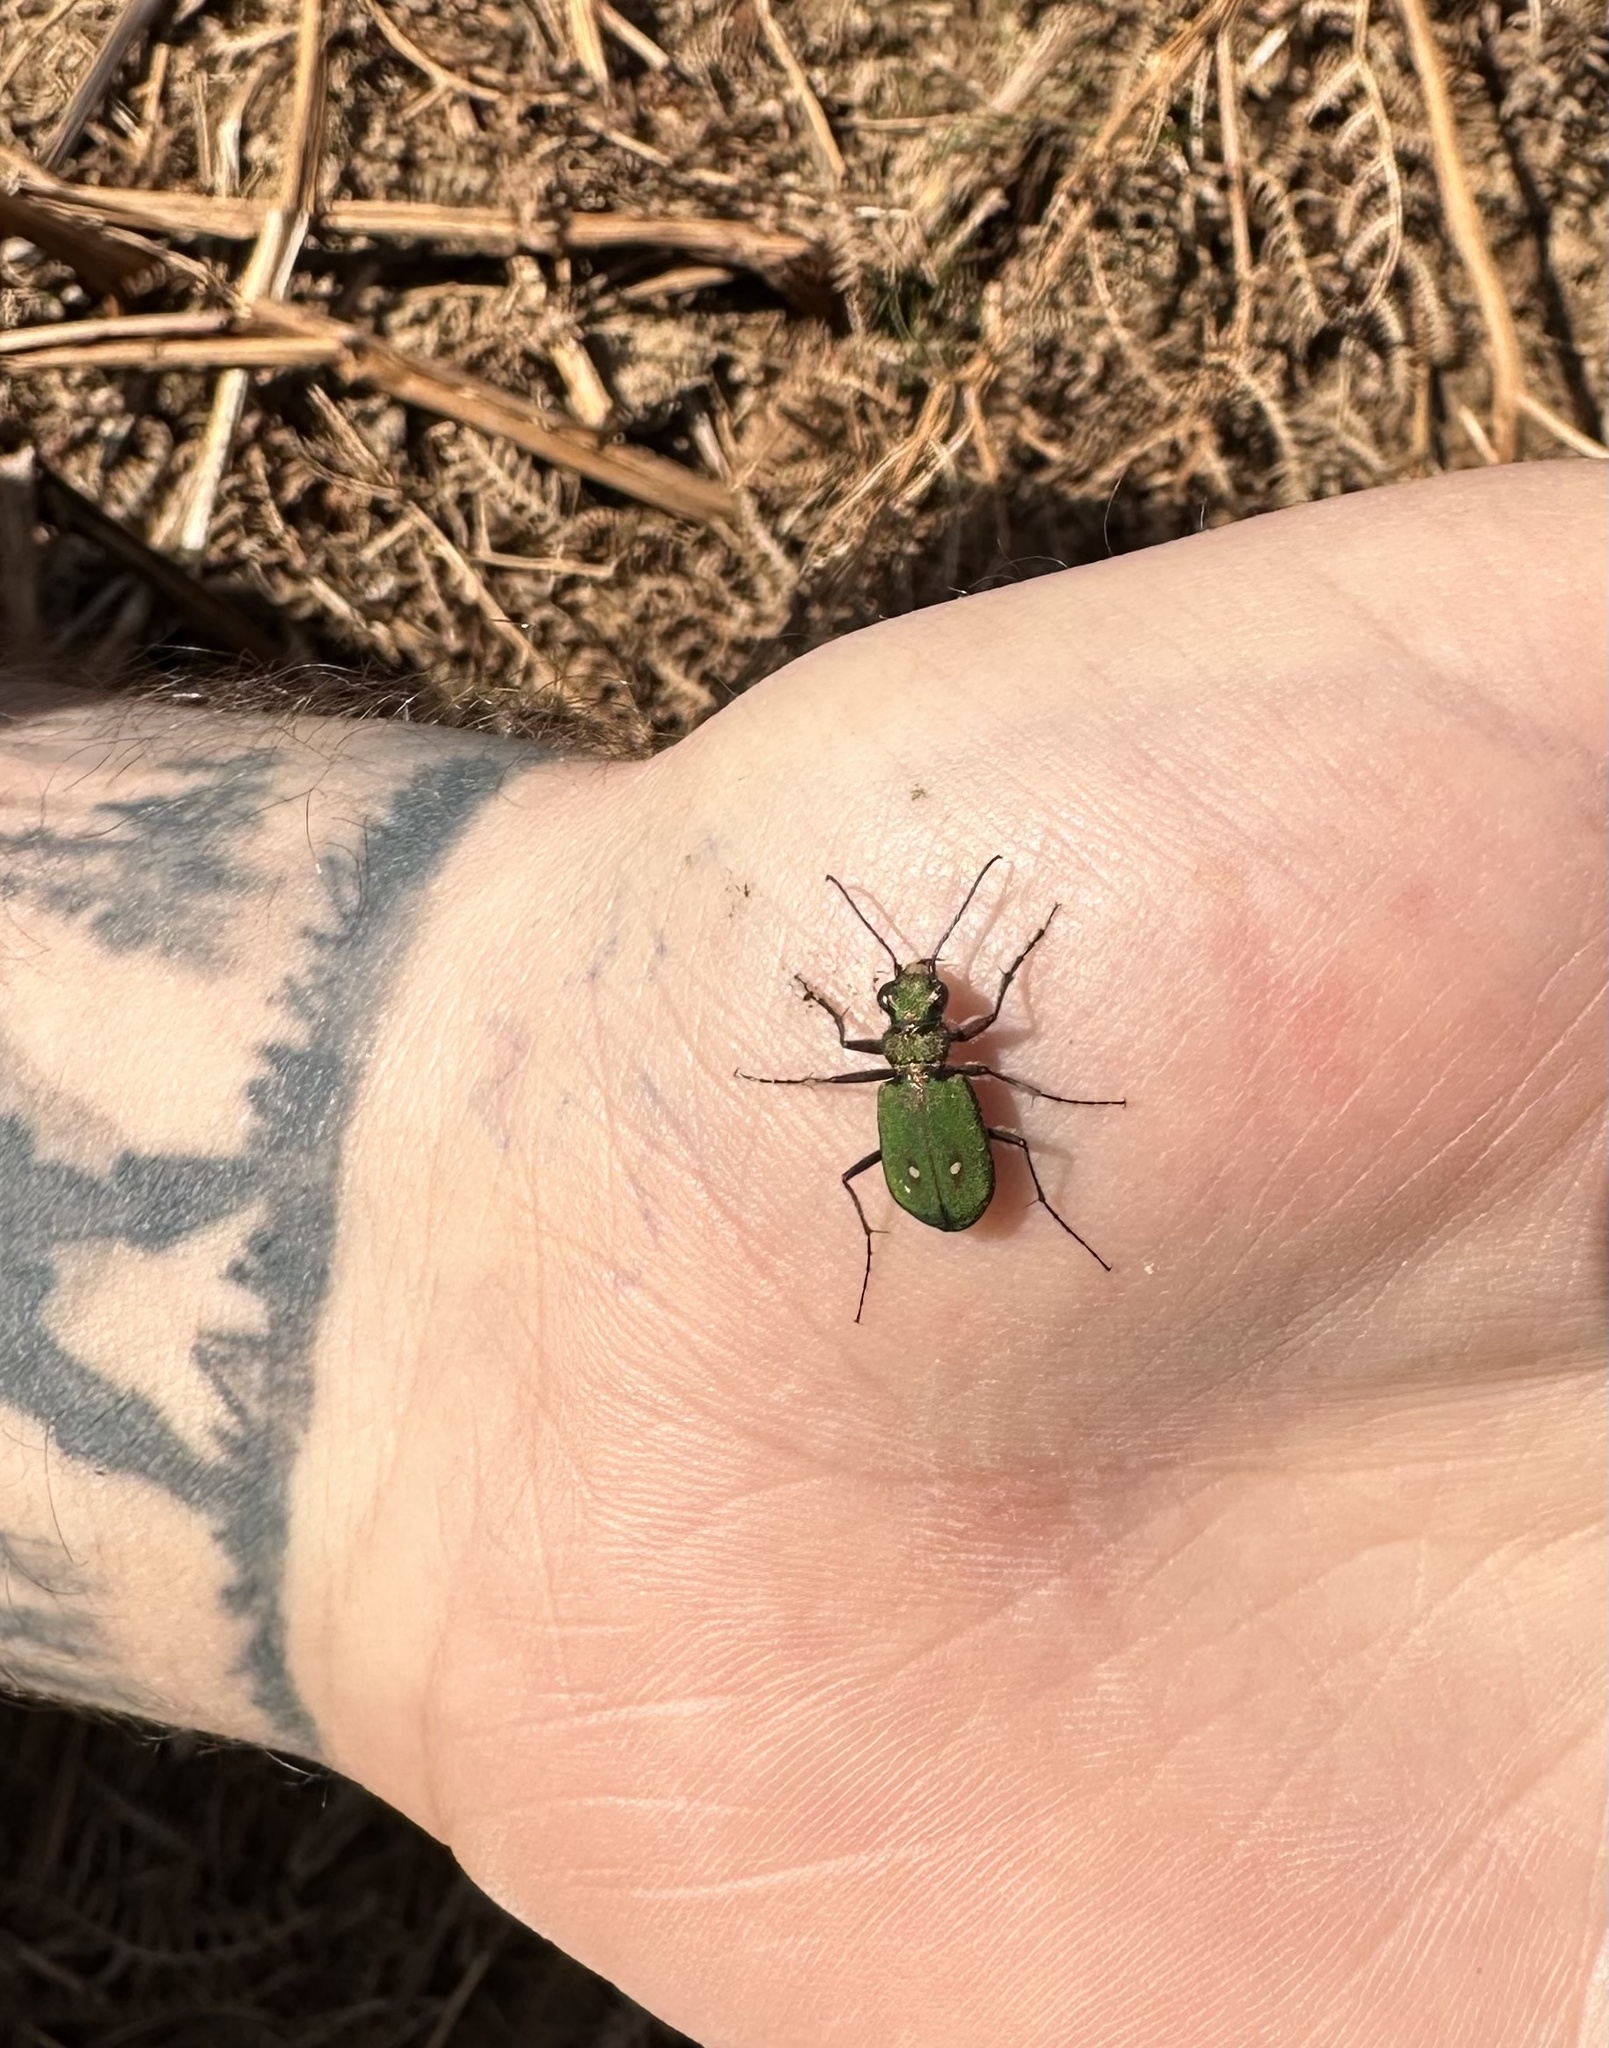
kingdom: Animalia
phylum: Arthropoda
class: Insecta
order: Coleoptera
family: Carabidae
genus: Cicindela
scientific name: Cicindela campestris
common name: Common tiger beetle
